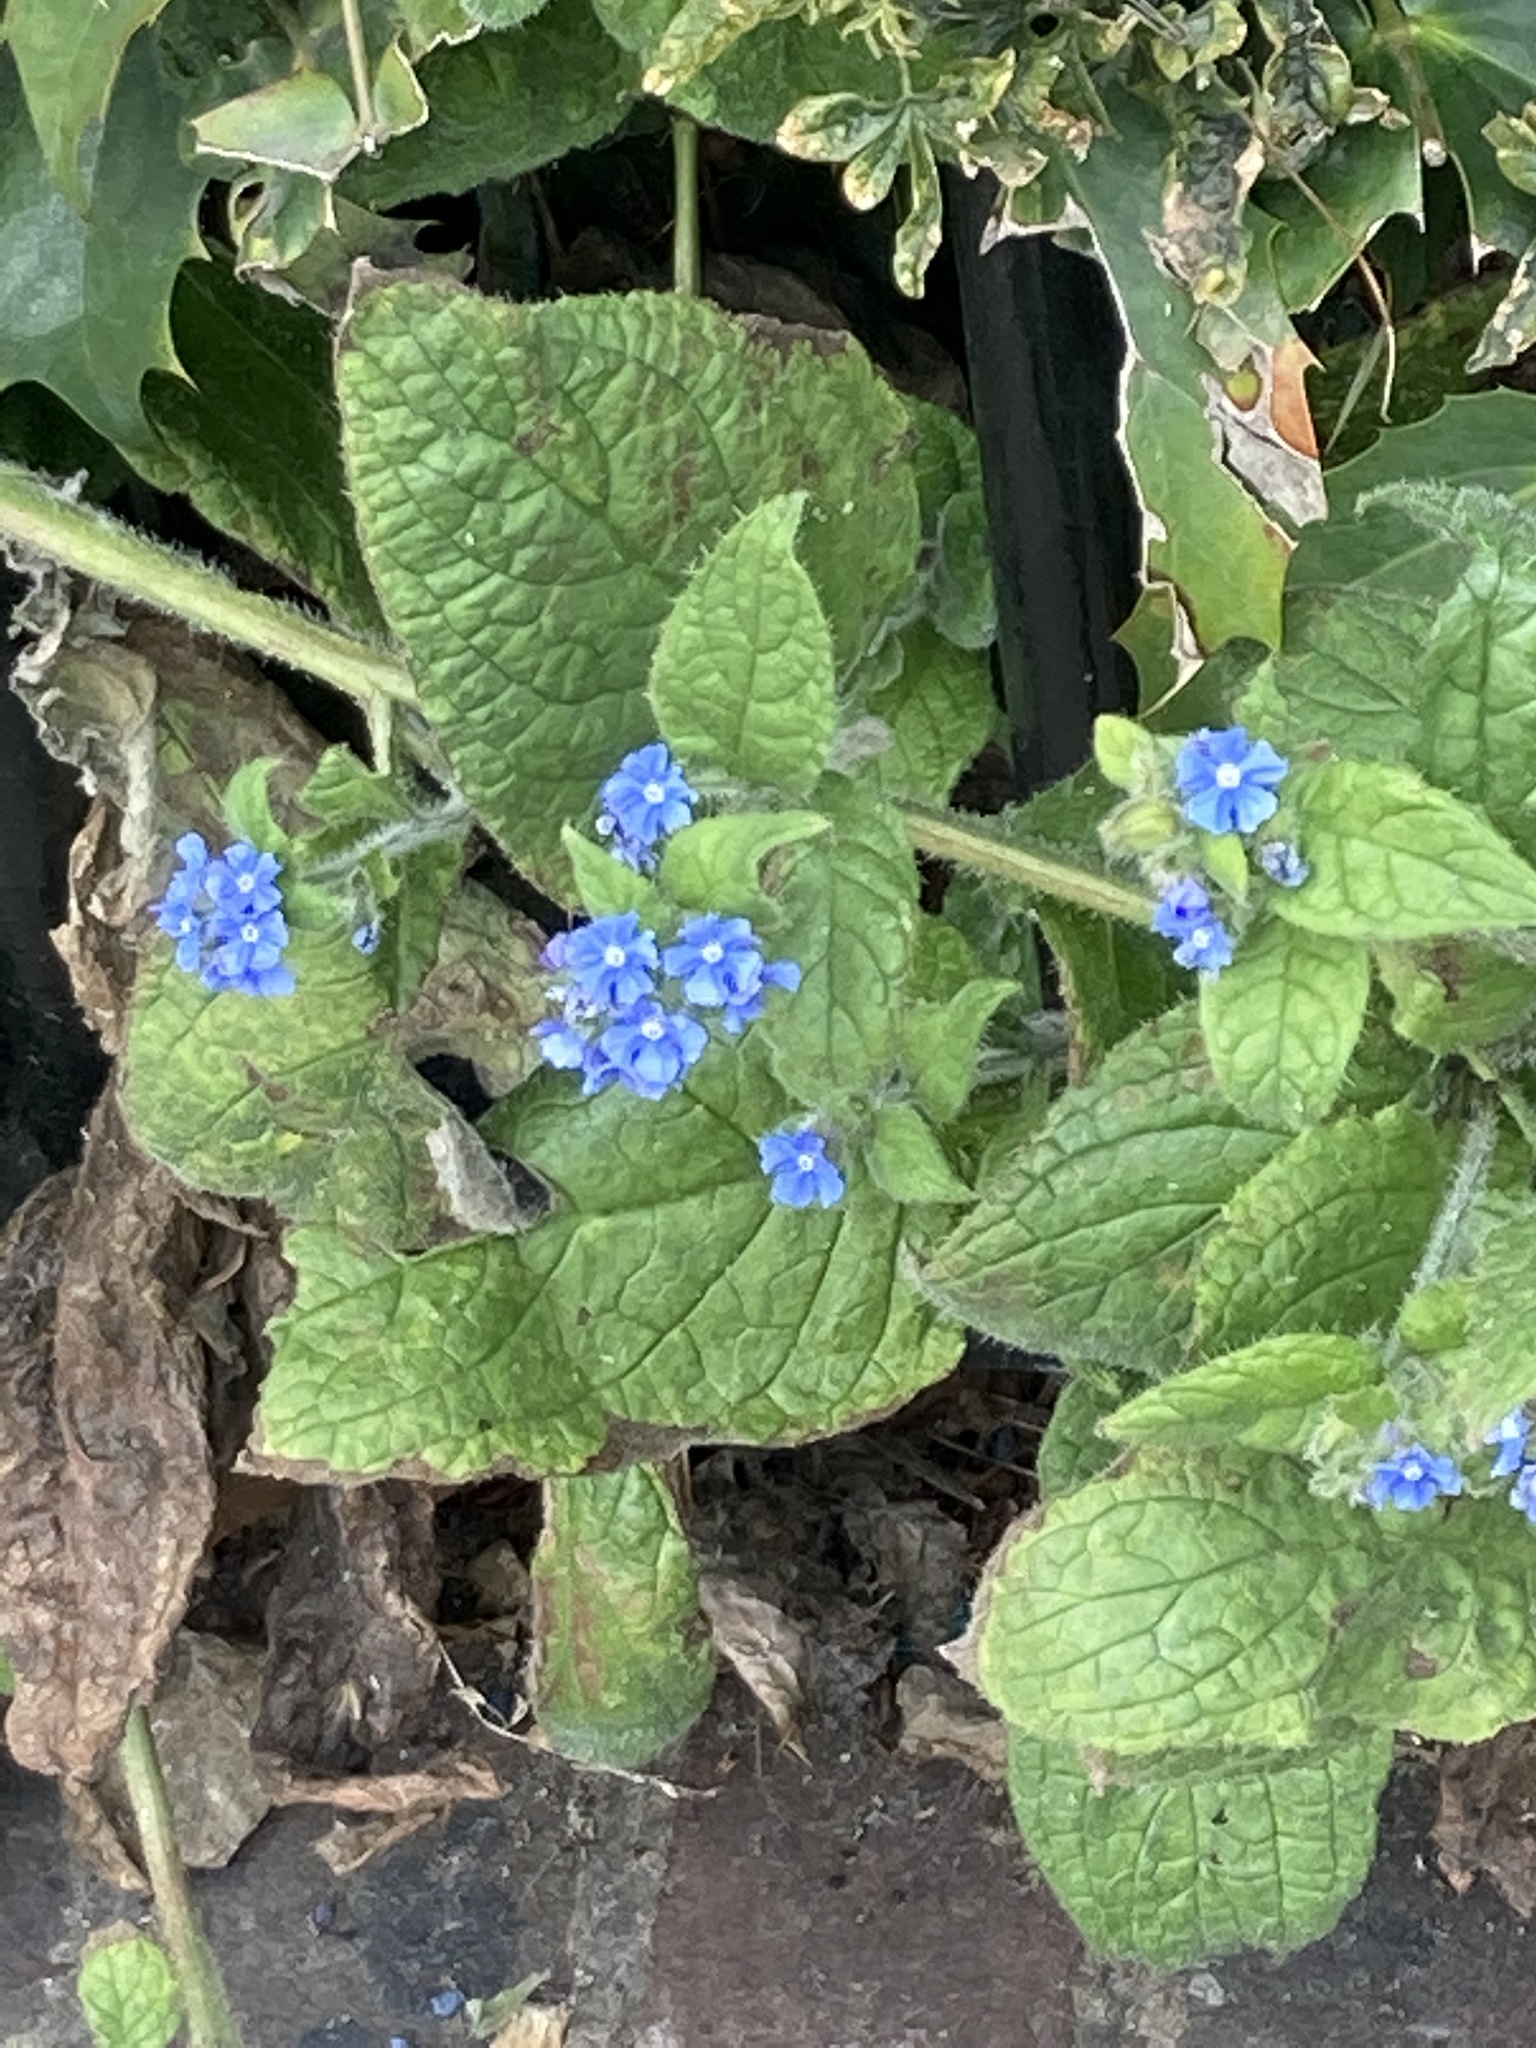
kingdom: Plantae
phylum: Tracheophyta
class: Magnoliopsida
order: Boraginales
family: Boraginaceae
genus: Pentaglottis
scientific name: Pentaglottis sempervirens
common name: Green alkanet
